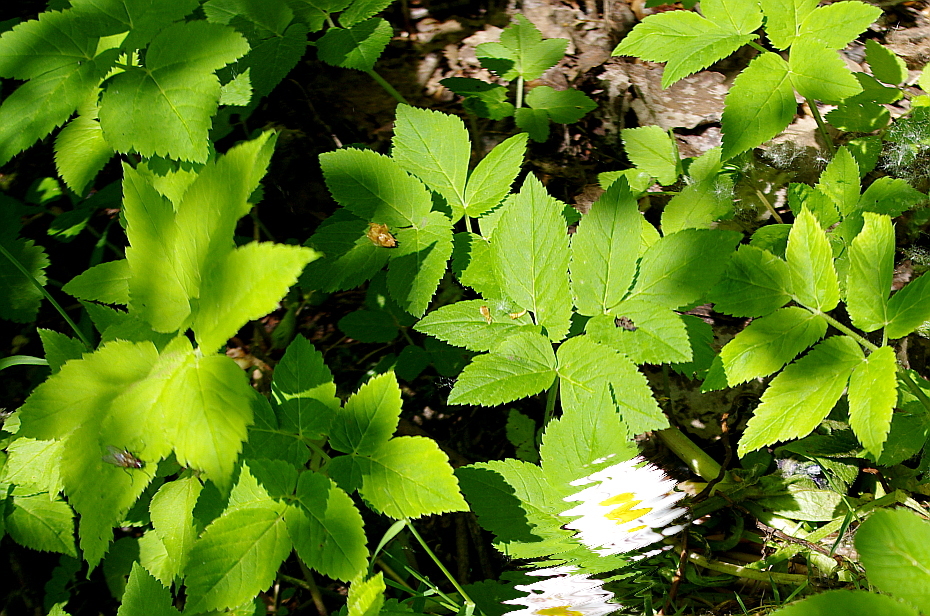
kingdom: Plantae
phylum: Tracheophyta
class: Magnoliopsida
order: Apiales
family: Apiaceae
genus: Aegopodium
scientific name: Aegopodium podagraria
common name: Ground-elder
